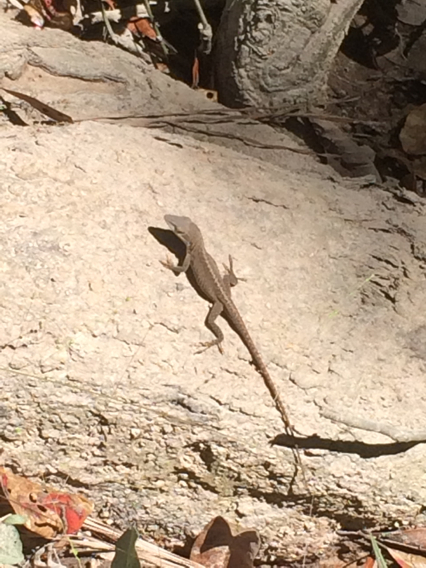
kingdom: Animalia
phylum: Chordata
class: Squamata
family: Dactyloidae
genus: Anolis
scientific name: Anolis carolinensis
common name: Green anole
